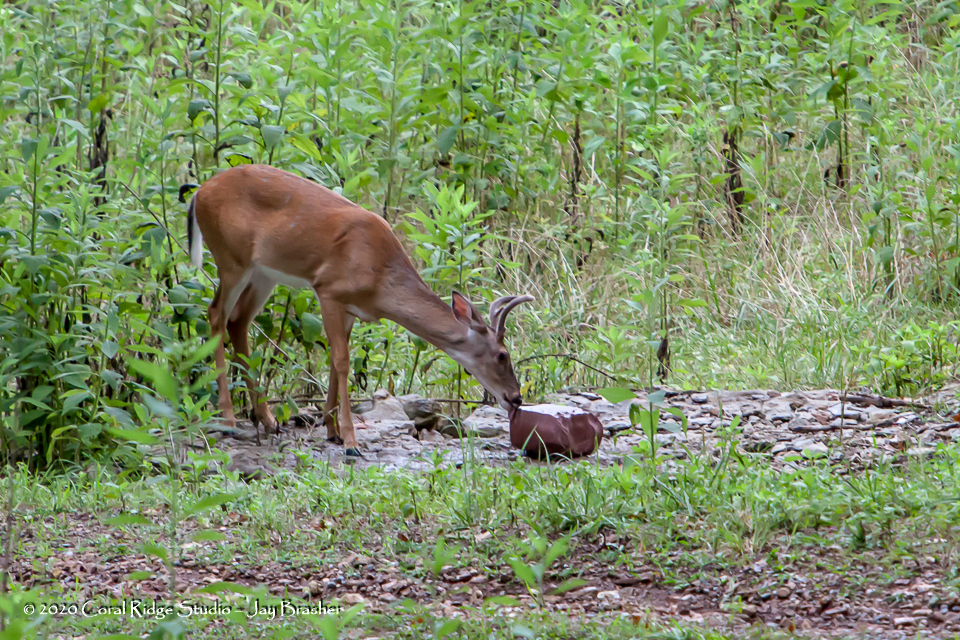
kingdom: Animalia
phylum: Chordata
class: Mammalia
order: Artiodactyla
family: Cervidae
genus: Odocoileus
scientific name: Odocoileus virginianus
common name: White-tailed deer
